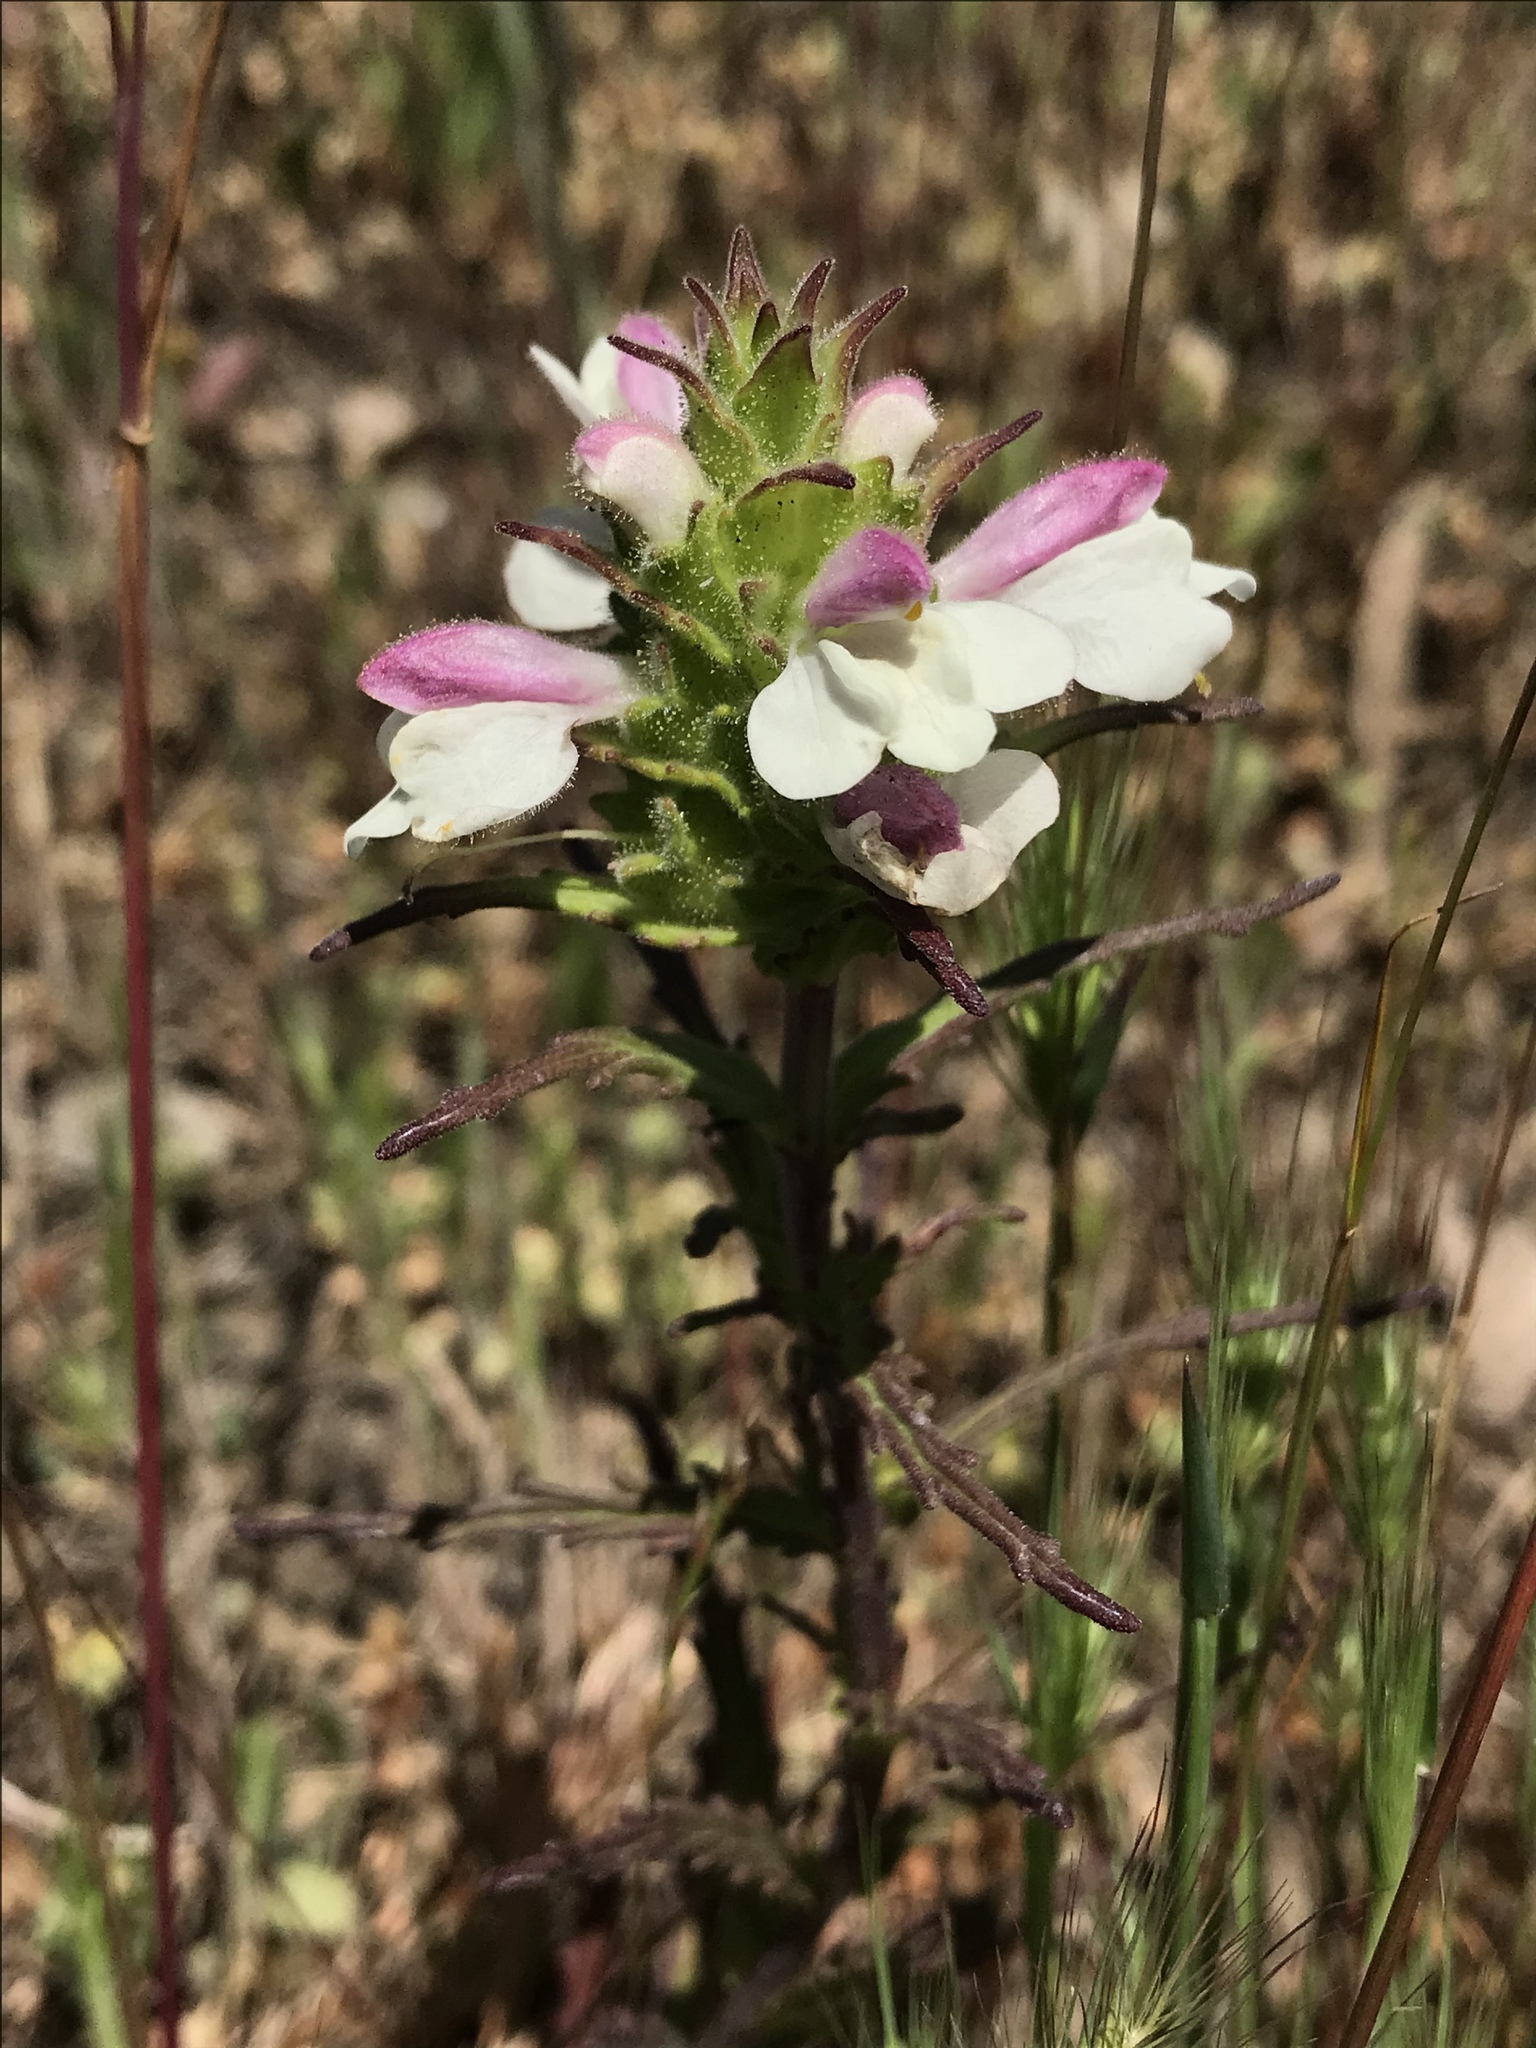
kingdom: Plantae
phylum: Tracheophyta
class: Magnoliopsida
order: Lamiales
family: Orobanchaceae
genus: Bellardia
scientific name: Bellardia trixago
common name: Mediterranean lineseed
